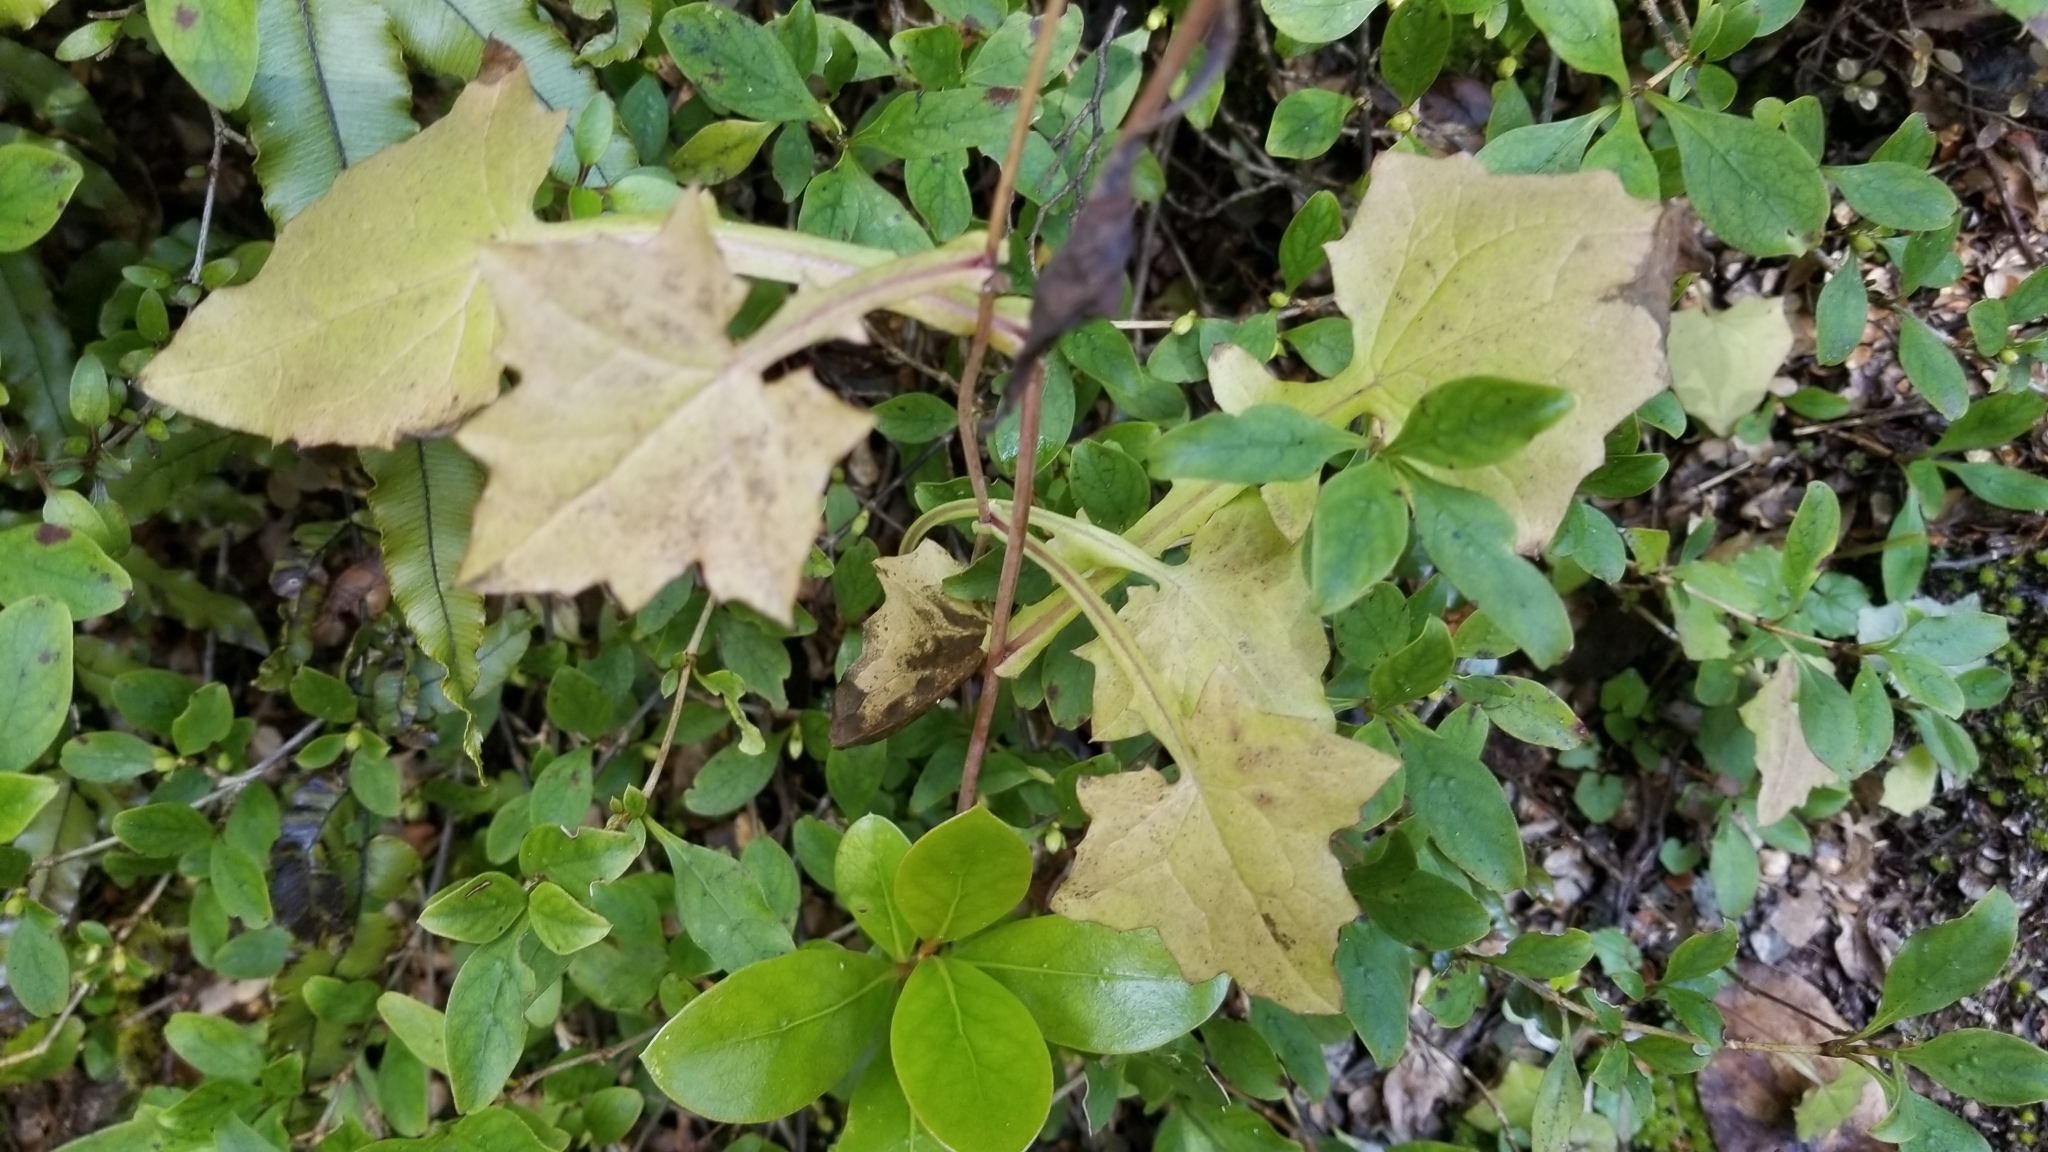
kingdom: Plantae
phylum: Tracheophyta
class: Magnoliopsida
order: Asterales
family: Asteraceae
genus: Mycelis
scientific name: Mycelis muralis
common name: Wall lettuce
